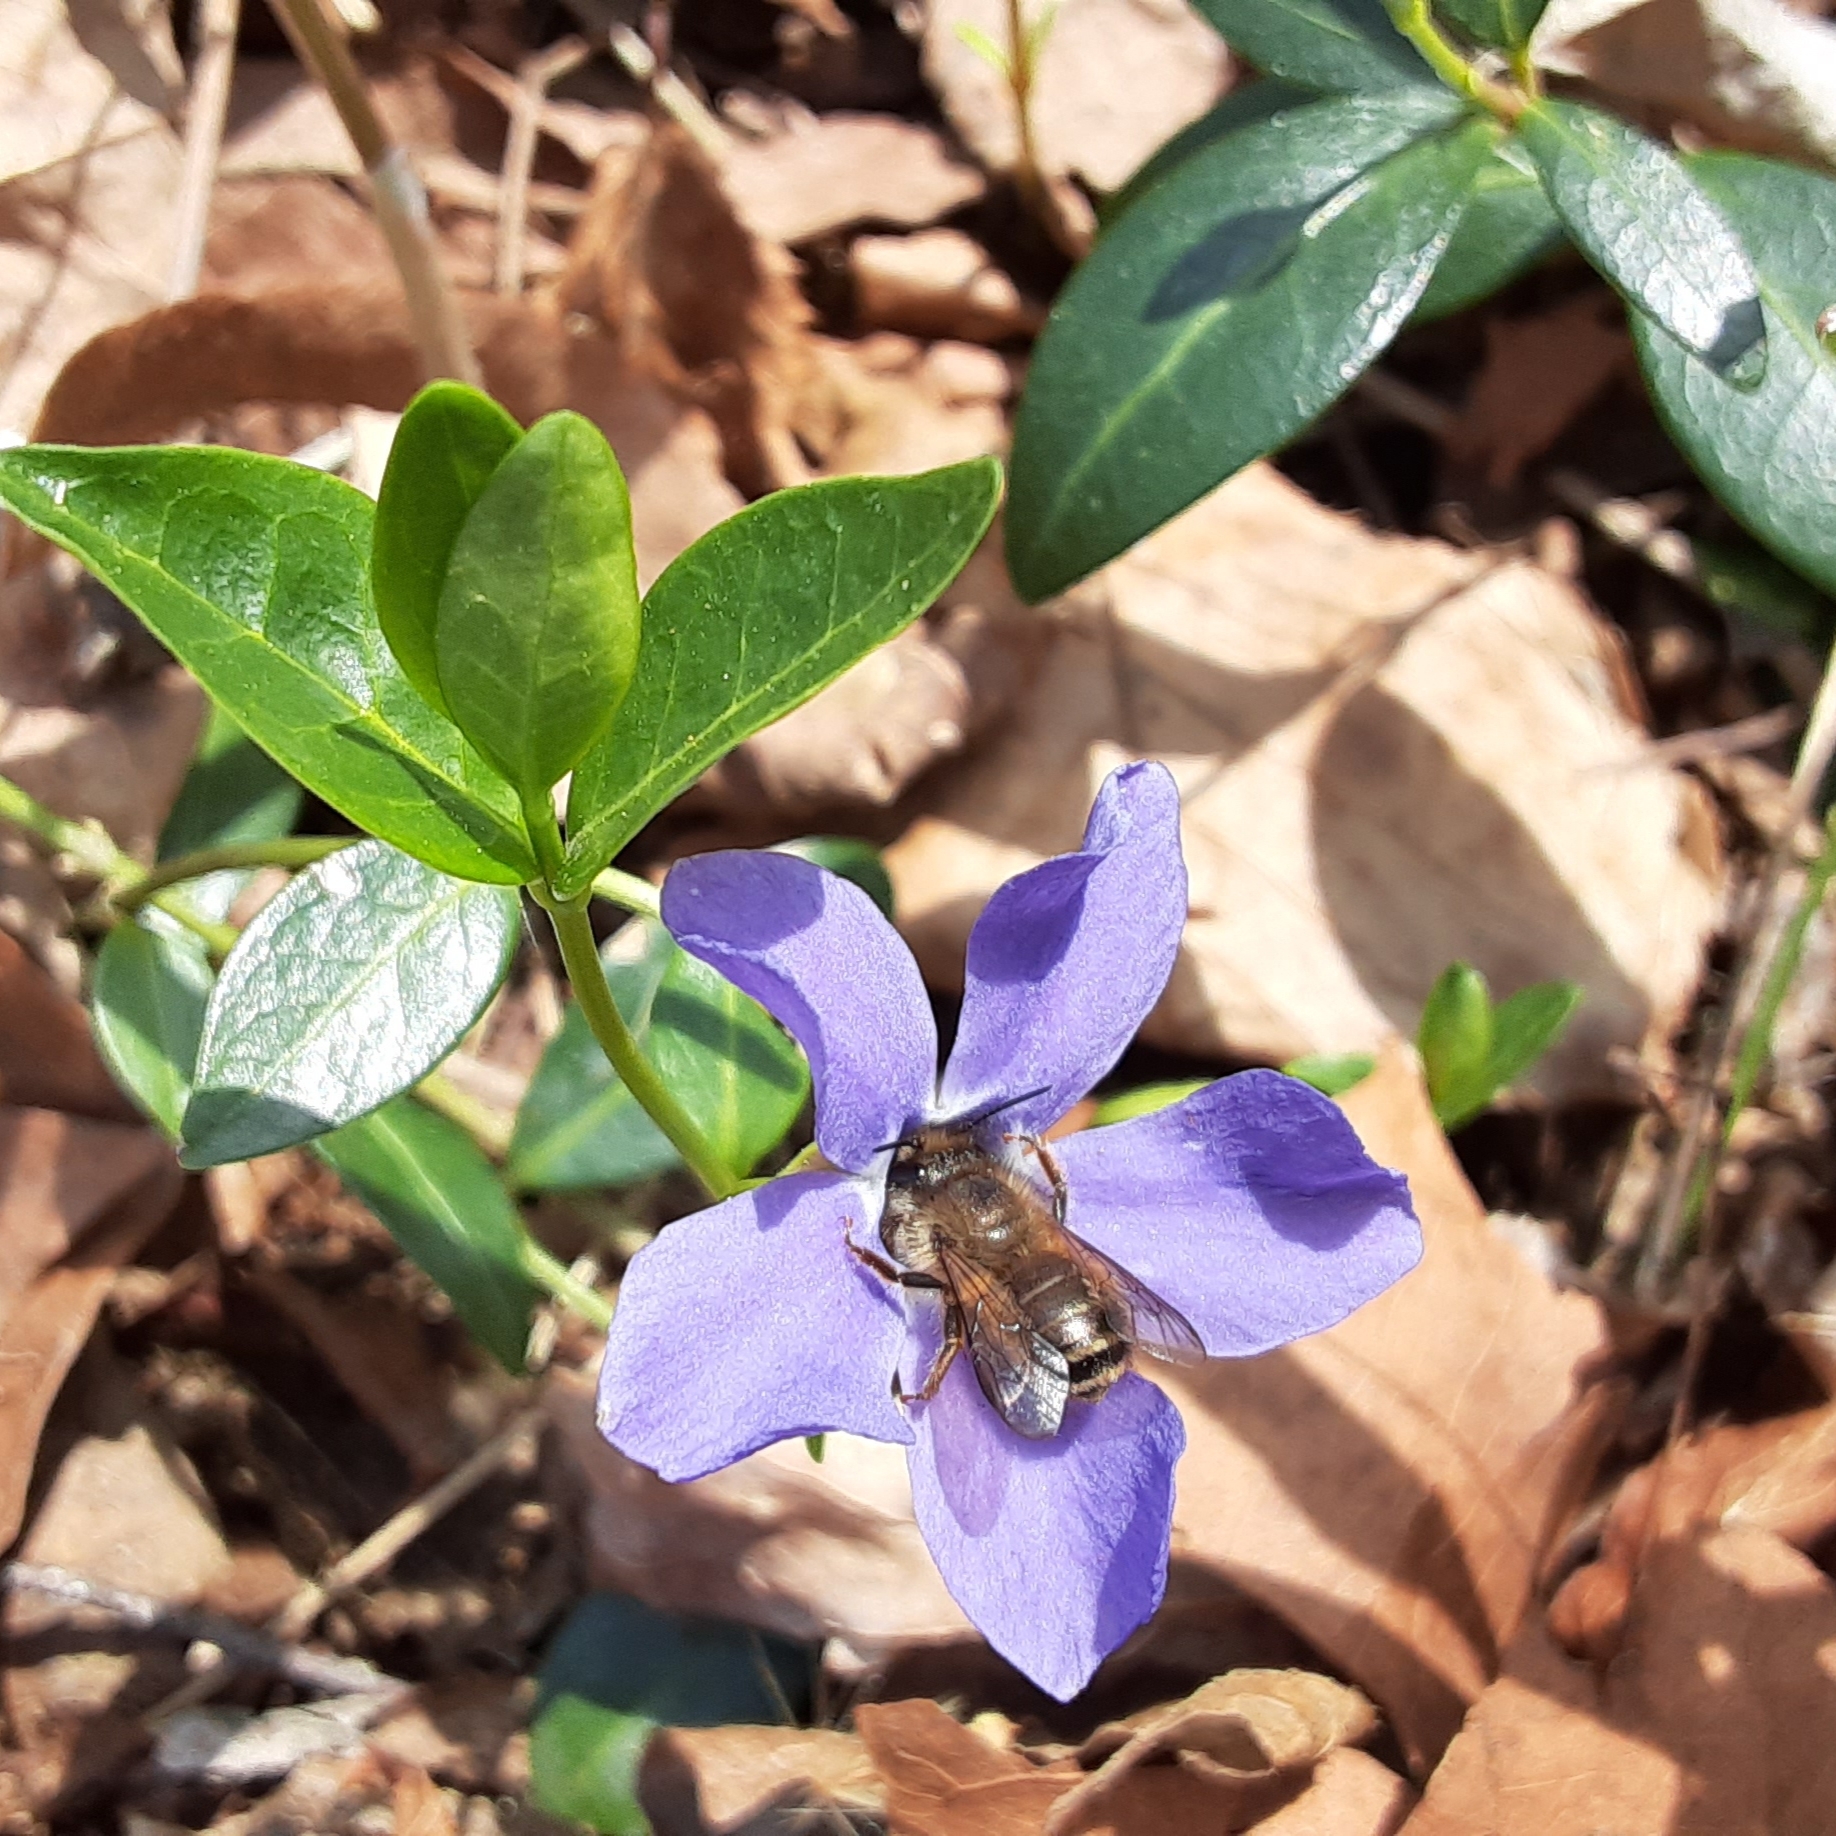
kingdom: Plantae
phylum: Tracheophyta
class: Magnoliopsida
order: Gentianales
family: Apocynaceae
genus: Vinca
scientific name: Vinca minor
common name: Lesser periwinkle
